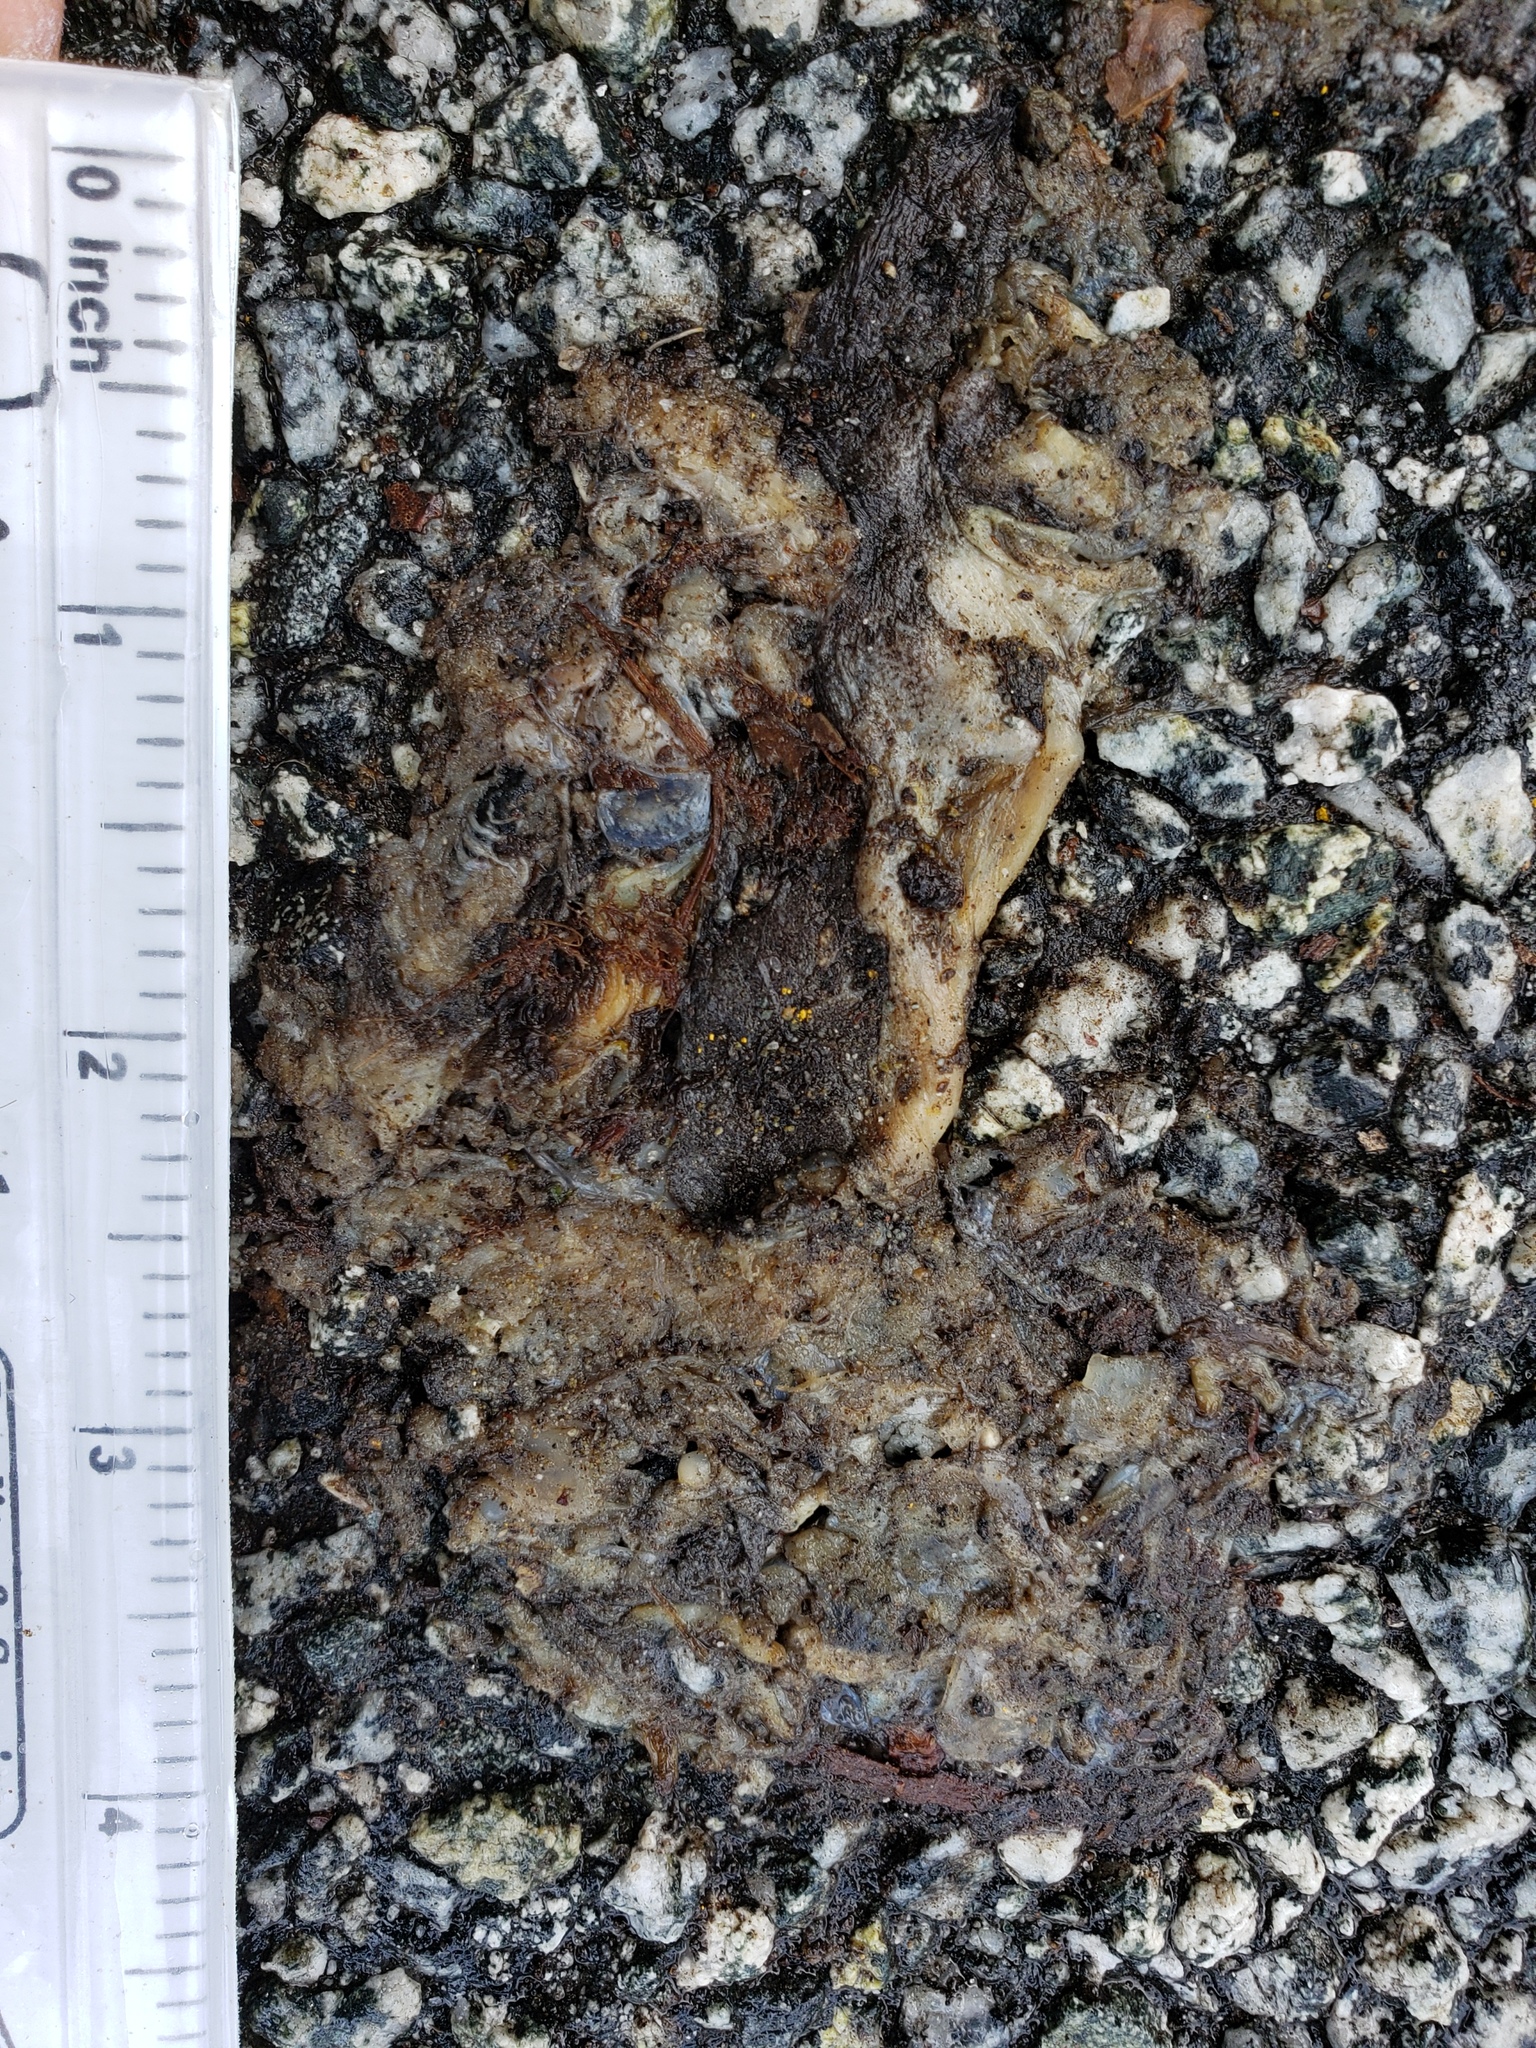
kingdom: Animalia
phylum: Chordata
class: Amphibia
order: Caudata
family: Salamandridae
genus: Taricha
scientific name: Taricha
